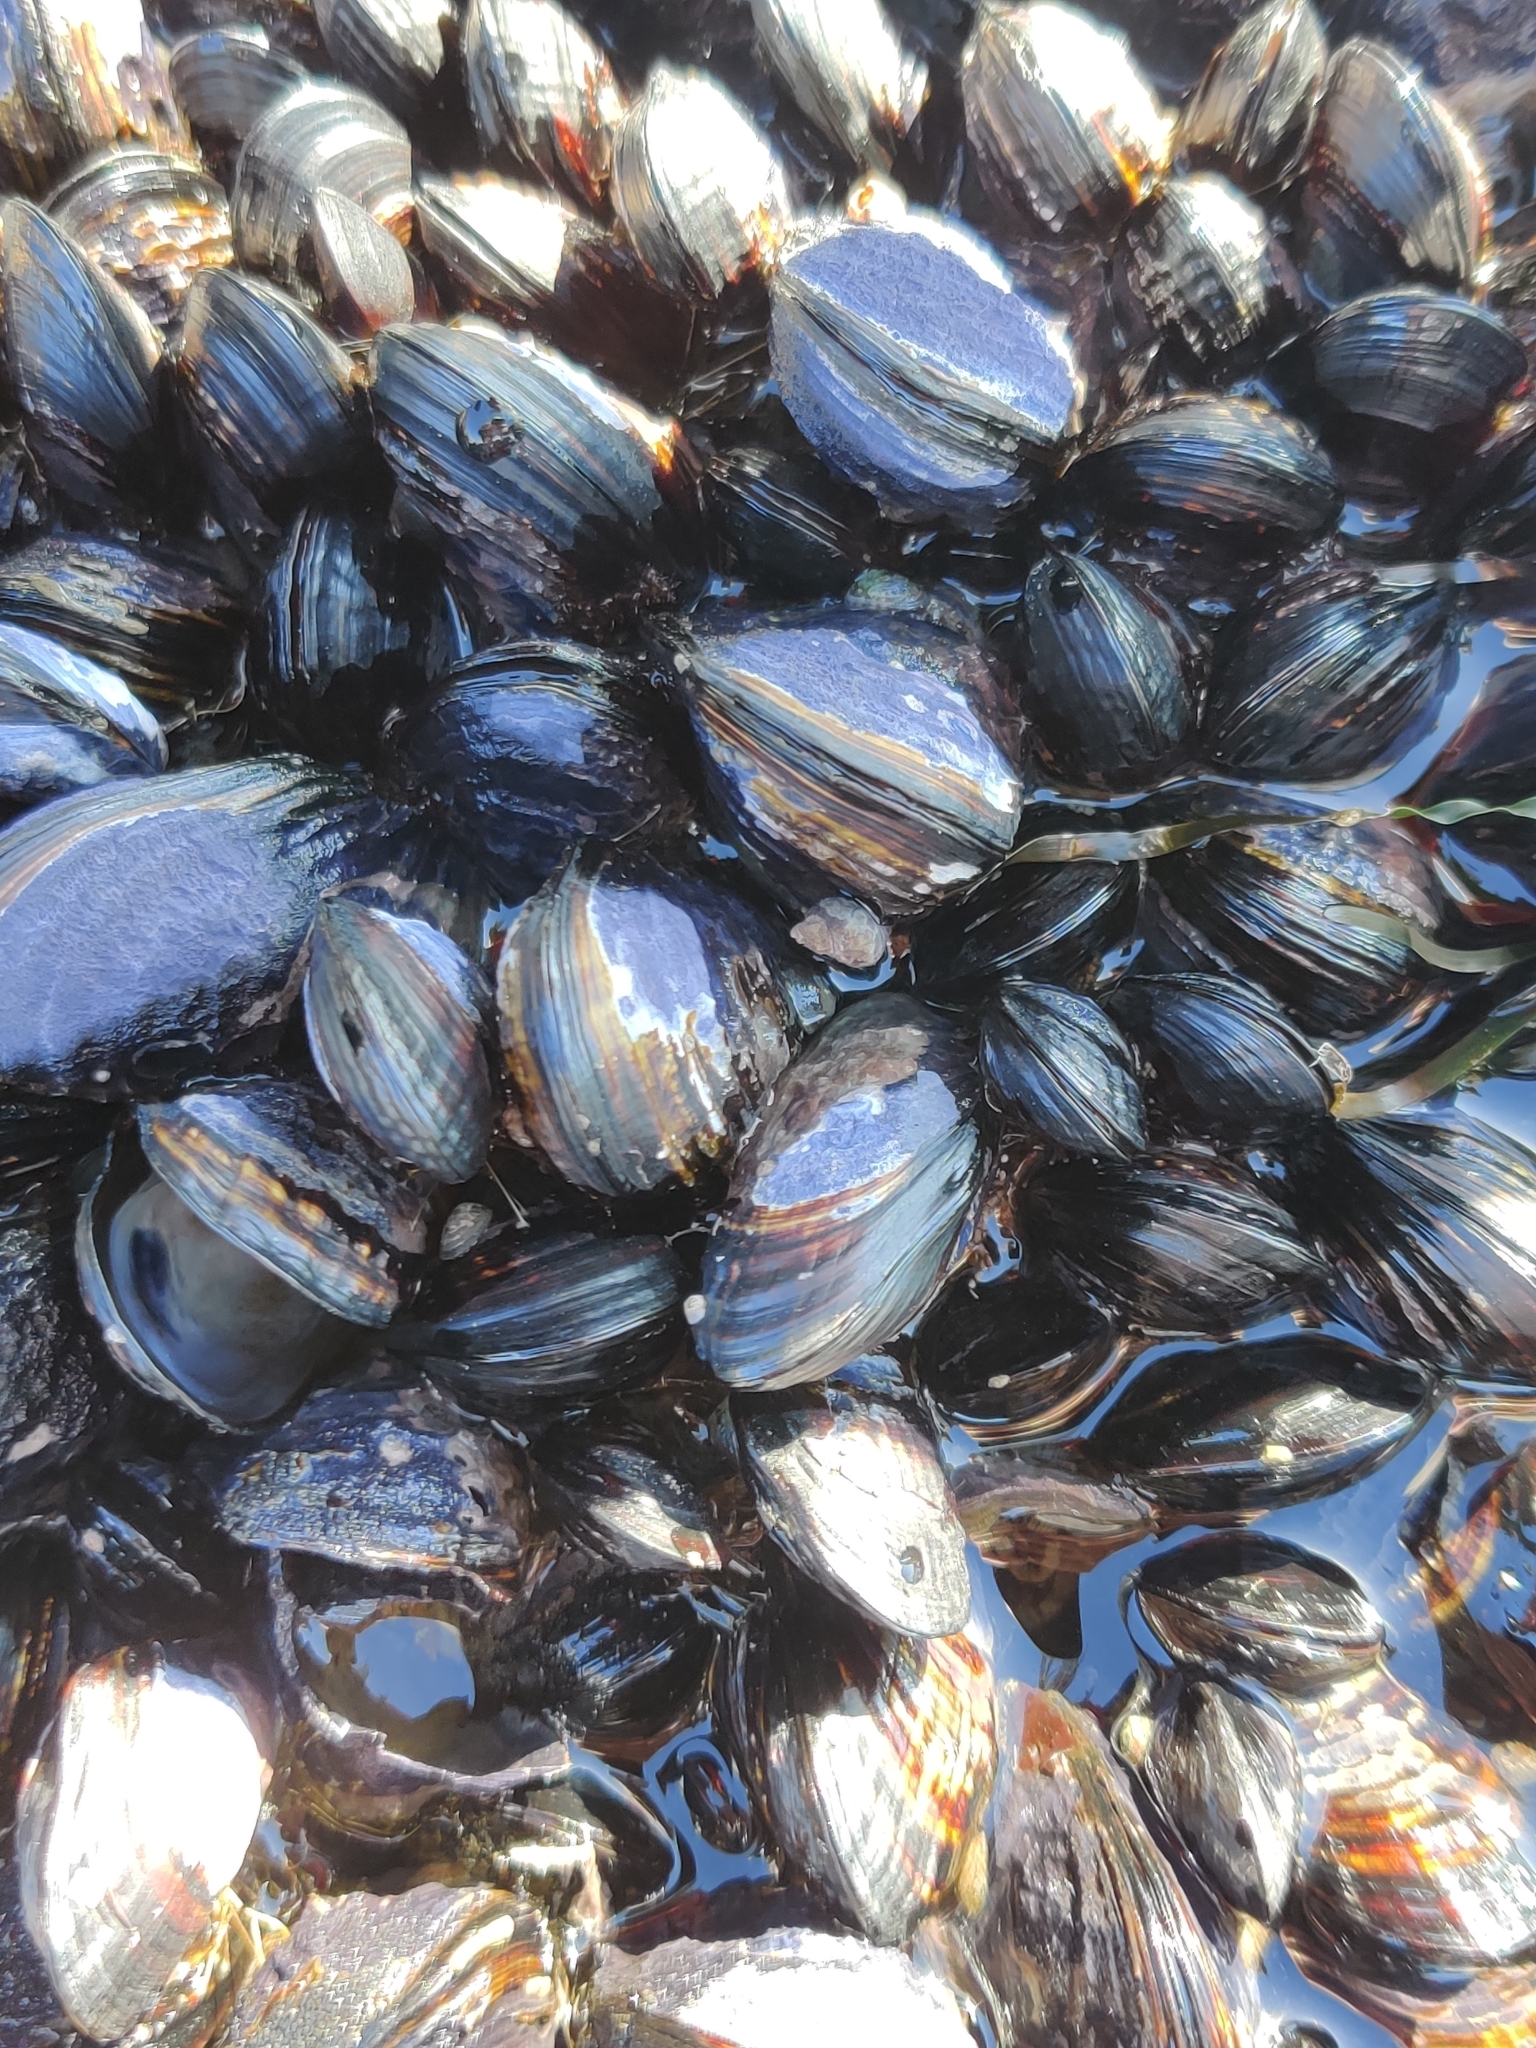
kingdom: Animalia
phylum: Mollusca
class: Bivalvia
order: Mytilida
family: Mytilidae
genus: Mytilus
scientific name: Mytilus californianus
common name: California mussel
